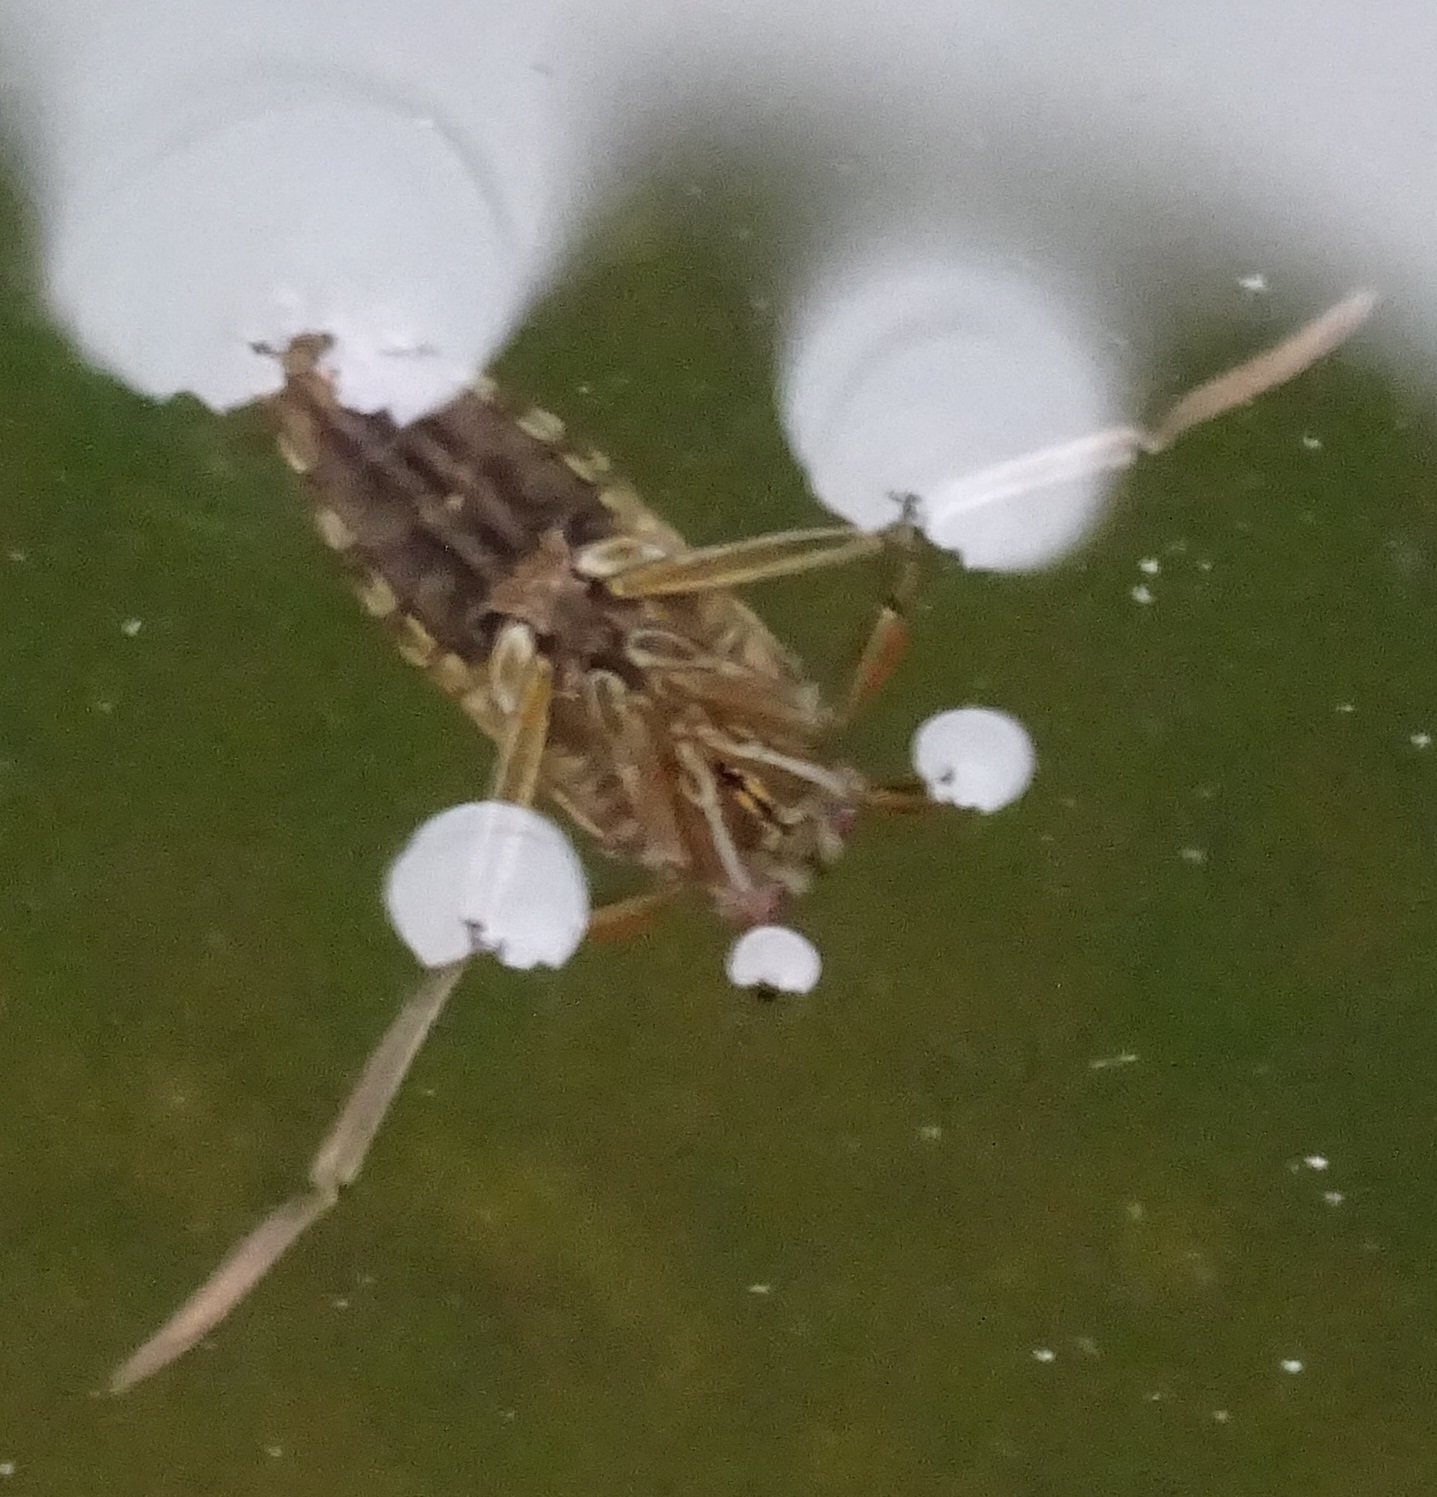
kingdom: Animalia
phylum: Arthropoda
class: Insecta
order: Hemiptera
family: Notonectidae
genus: Notonecta
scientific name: Notonecta
